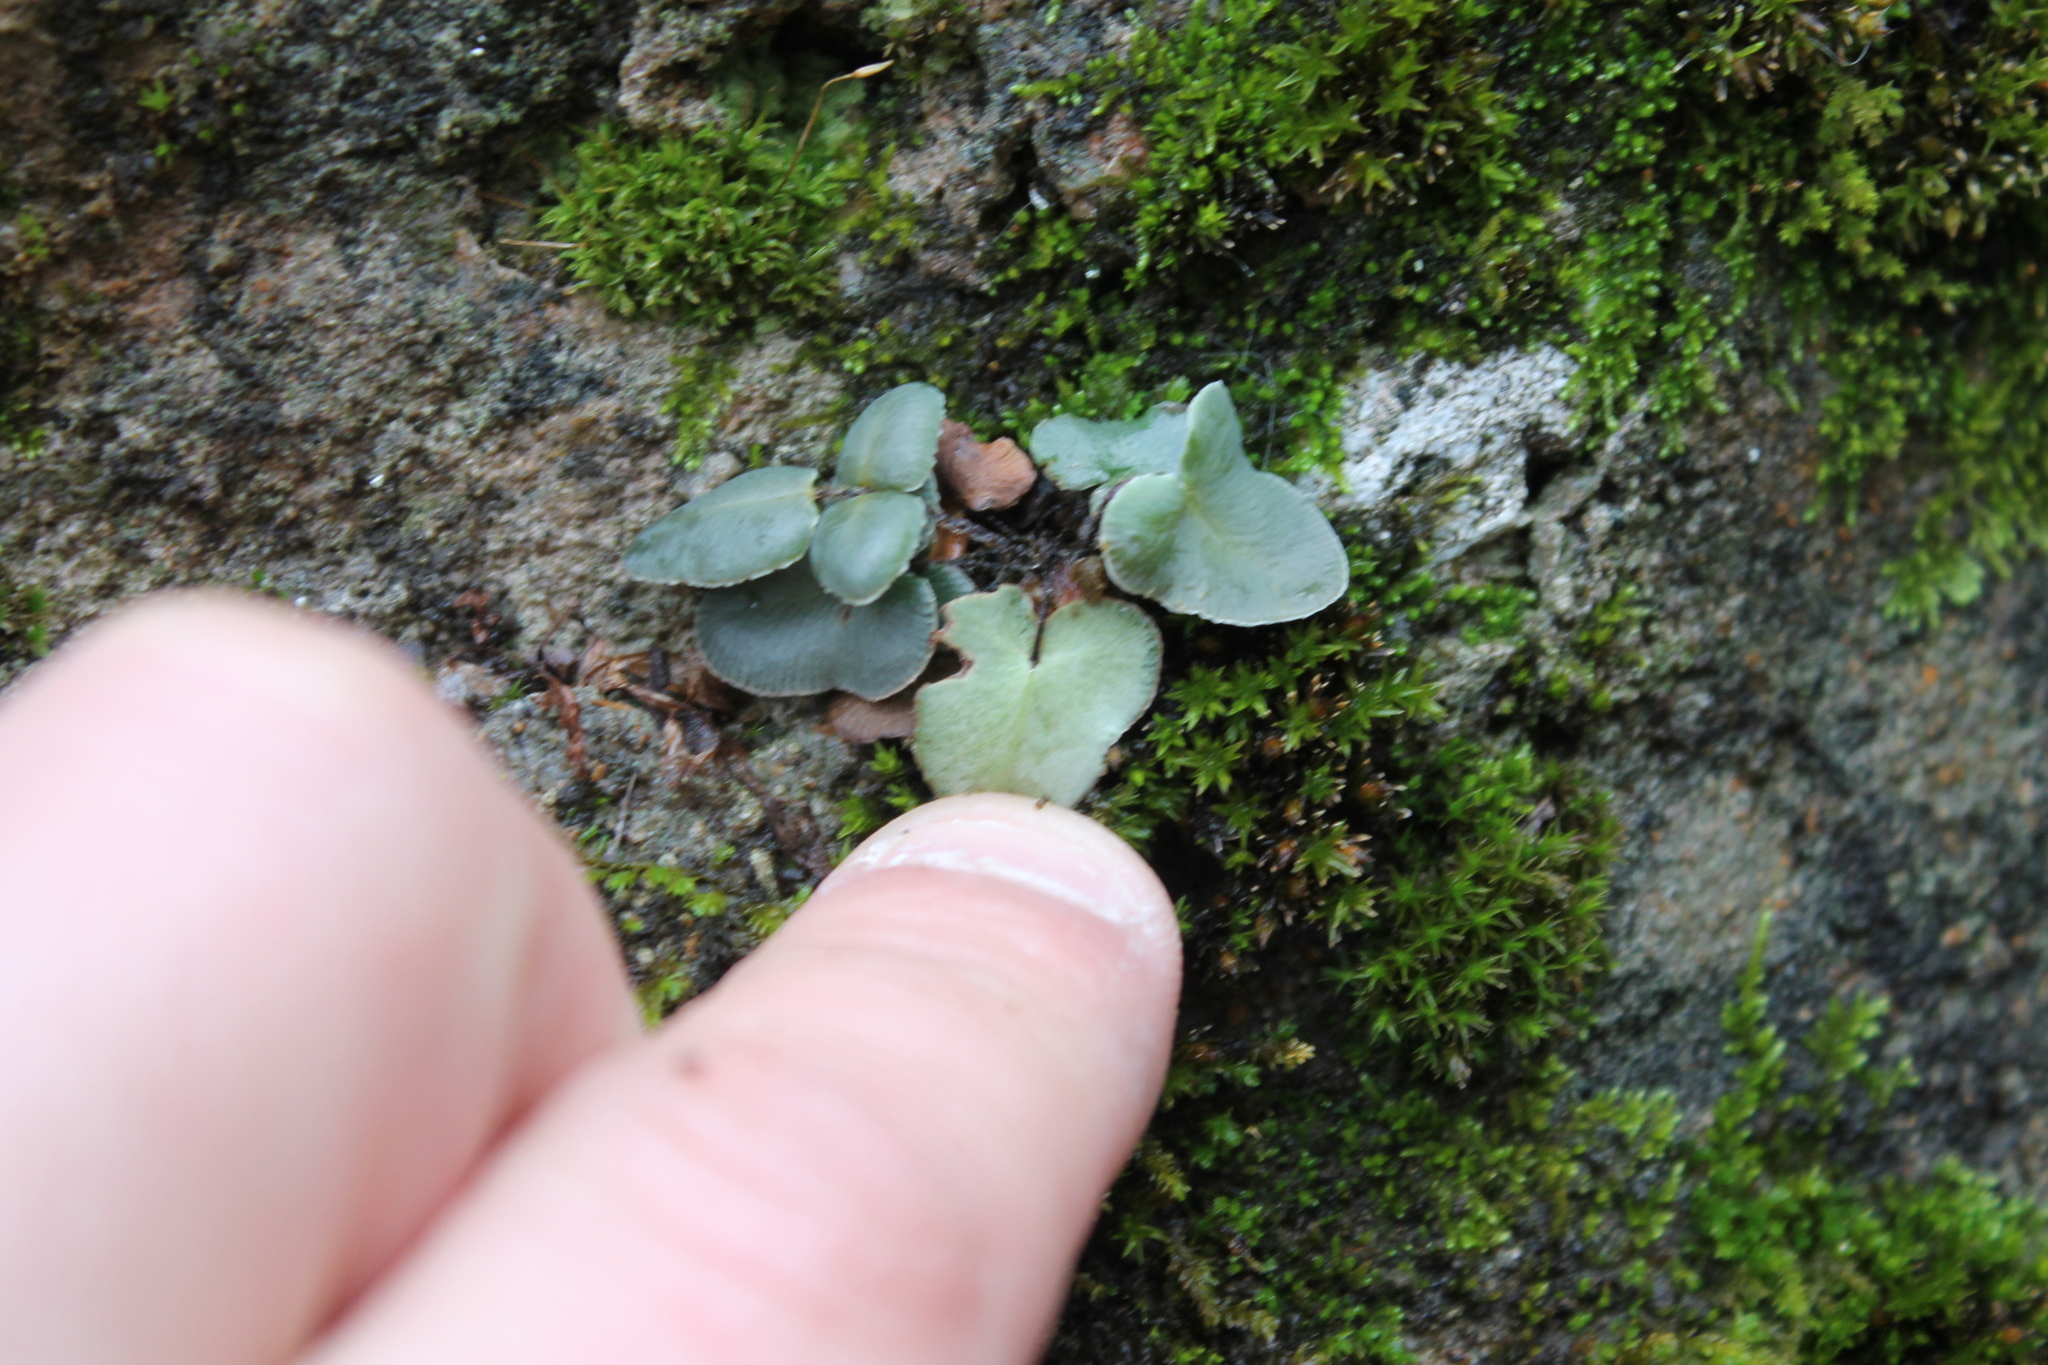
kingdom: Plantae
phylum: Tracheophyta
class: Polypodiopsida
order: Polypodiales
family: Pteridaceae
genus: Pellaea
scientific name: Pellaea atropurpurea
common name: Hairy cliffbrake
